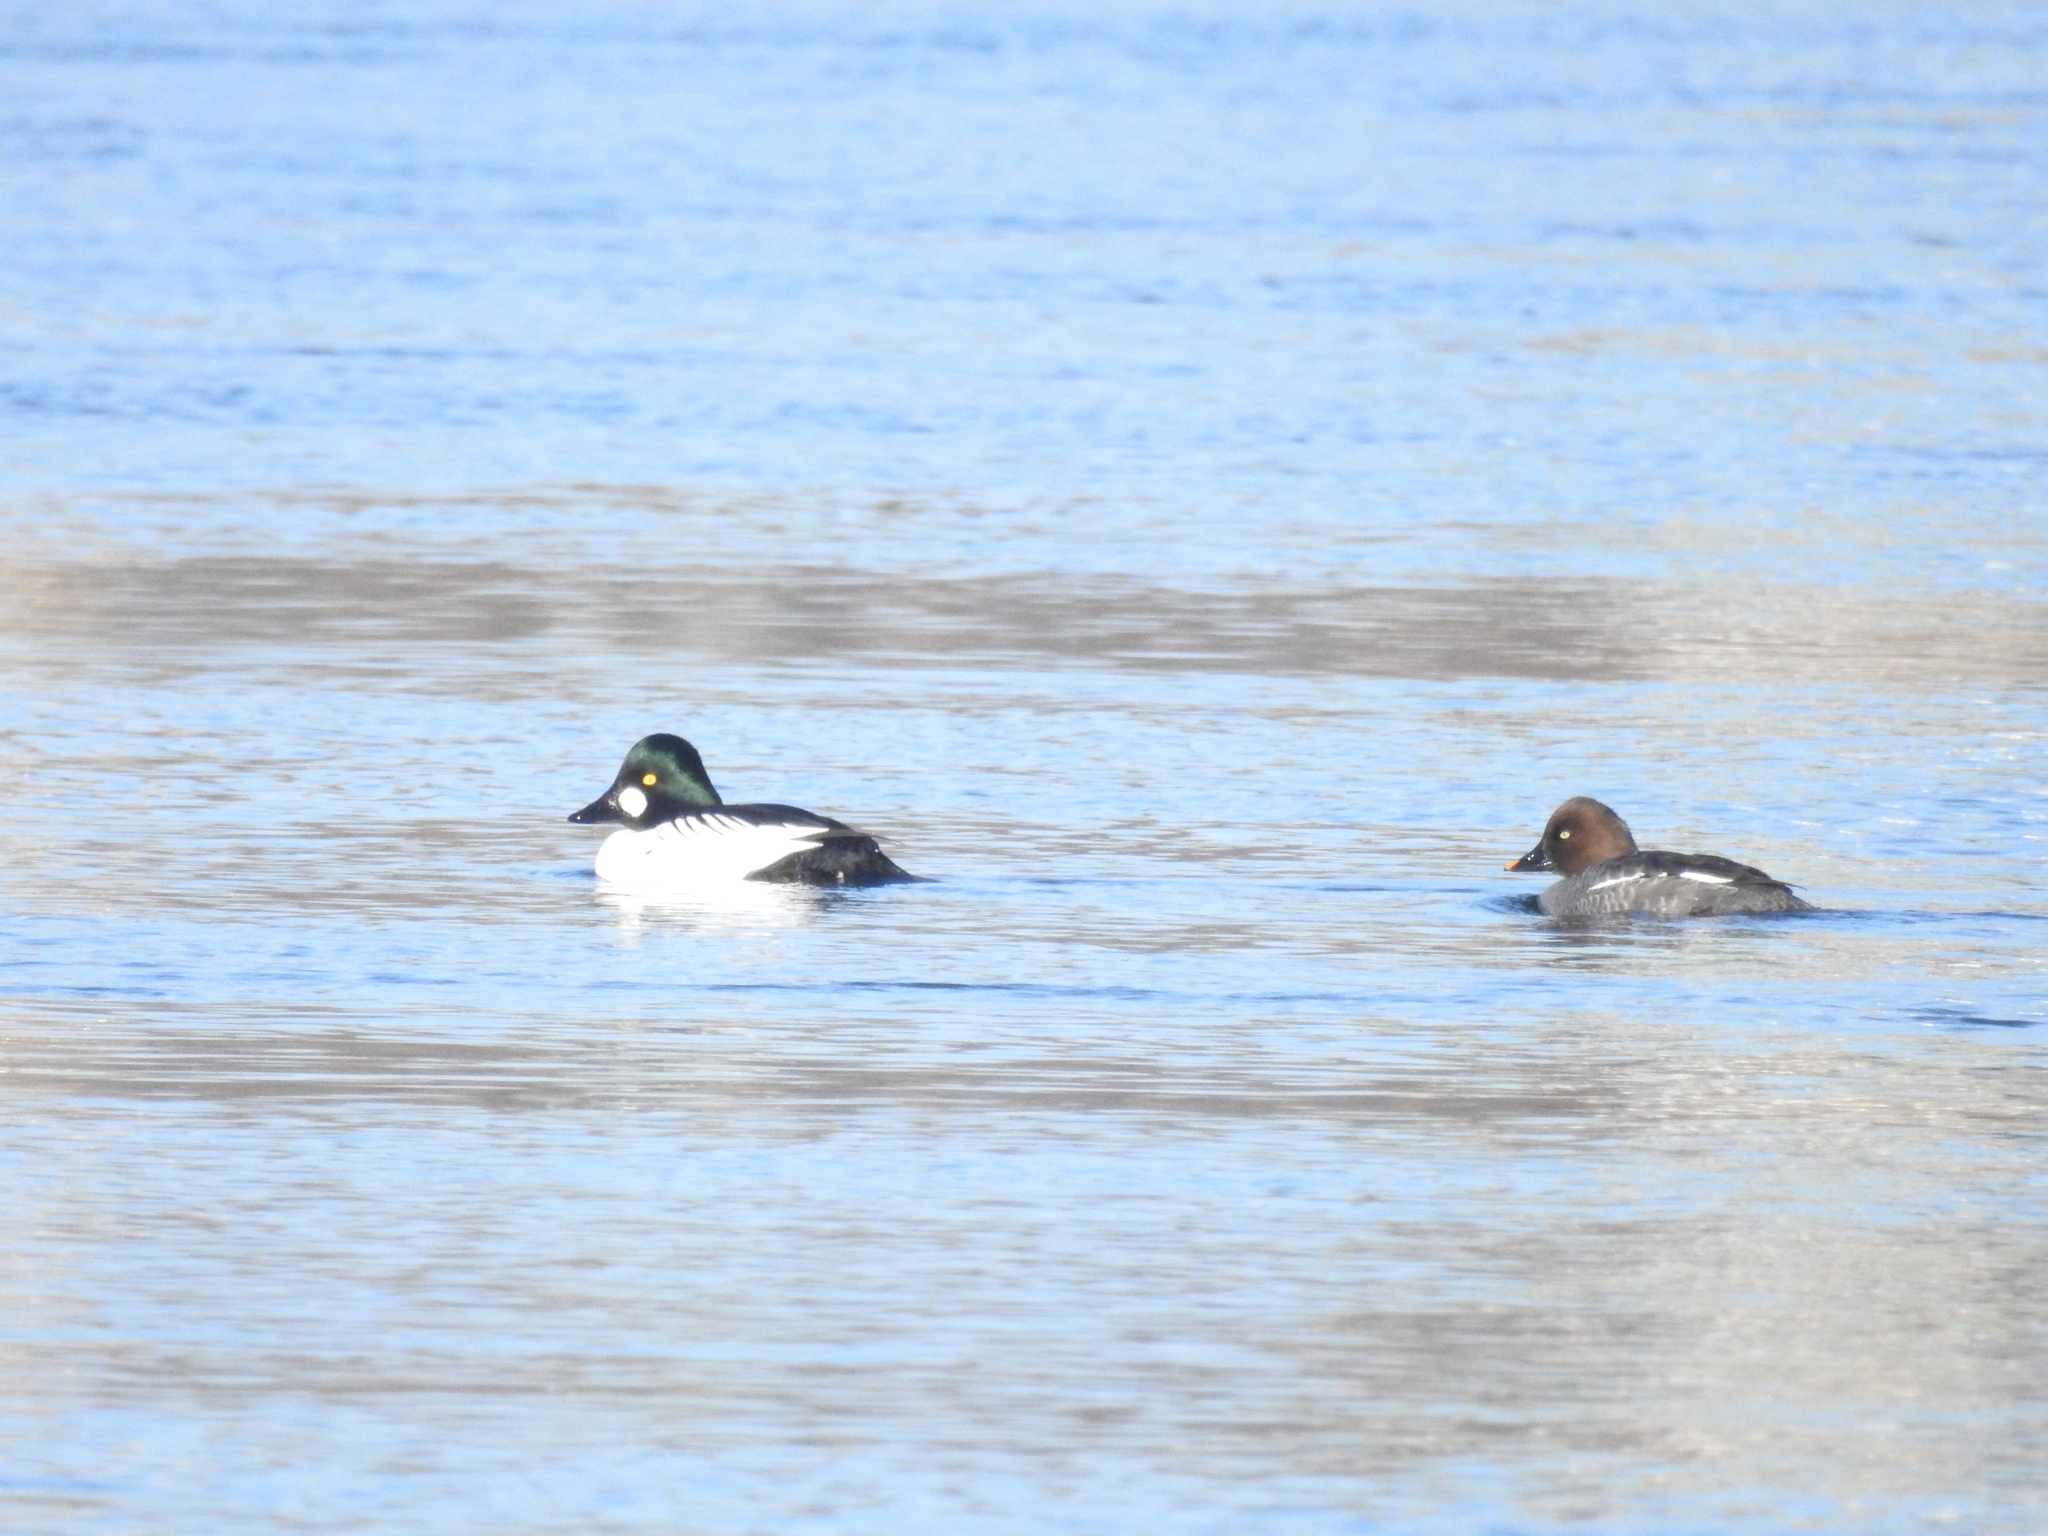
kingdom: Animalia
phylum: Chordata
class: Aves
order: Anseriformes
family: Anatidae
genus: Bucephala
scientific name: Bucephala clangula
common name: Common goldeneye
